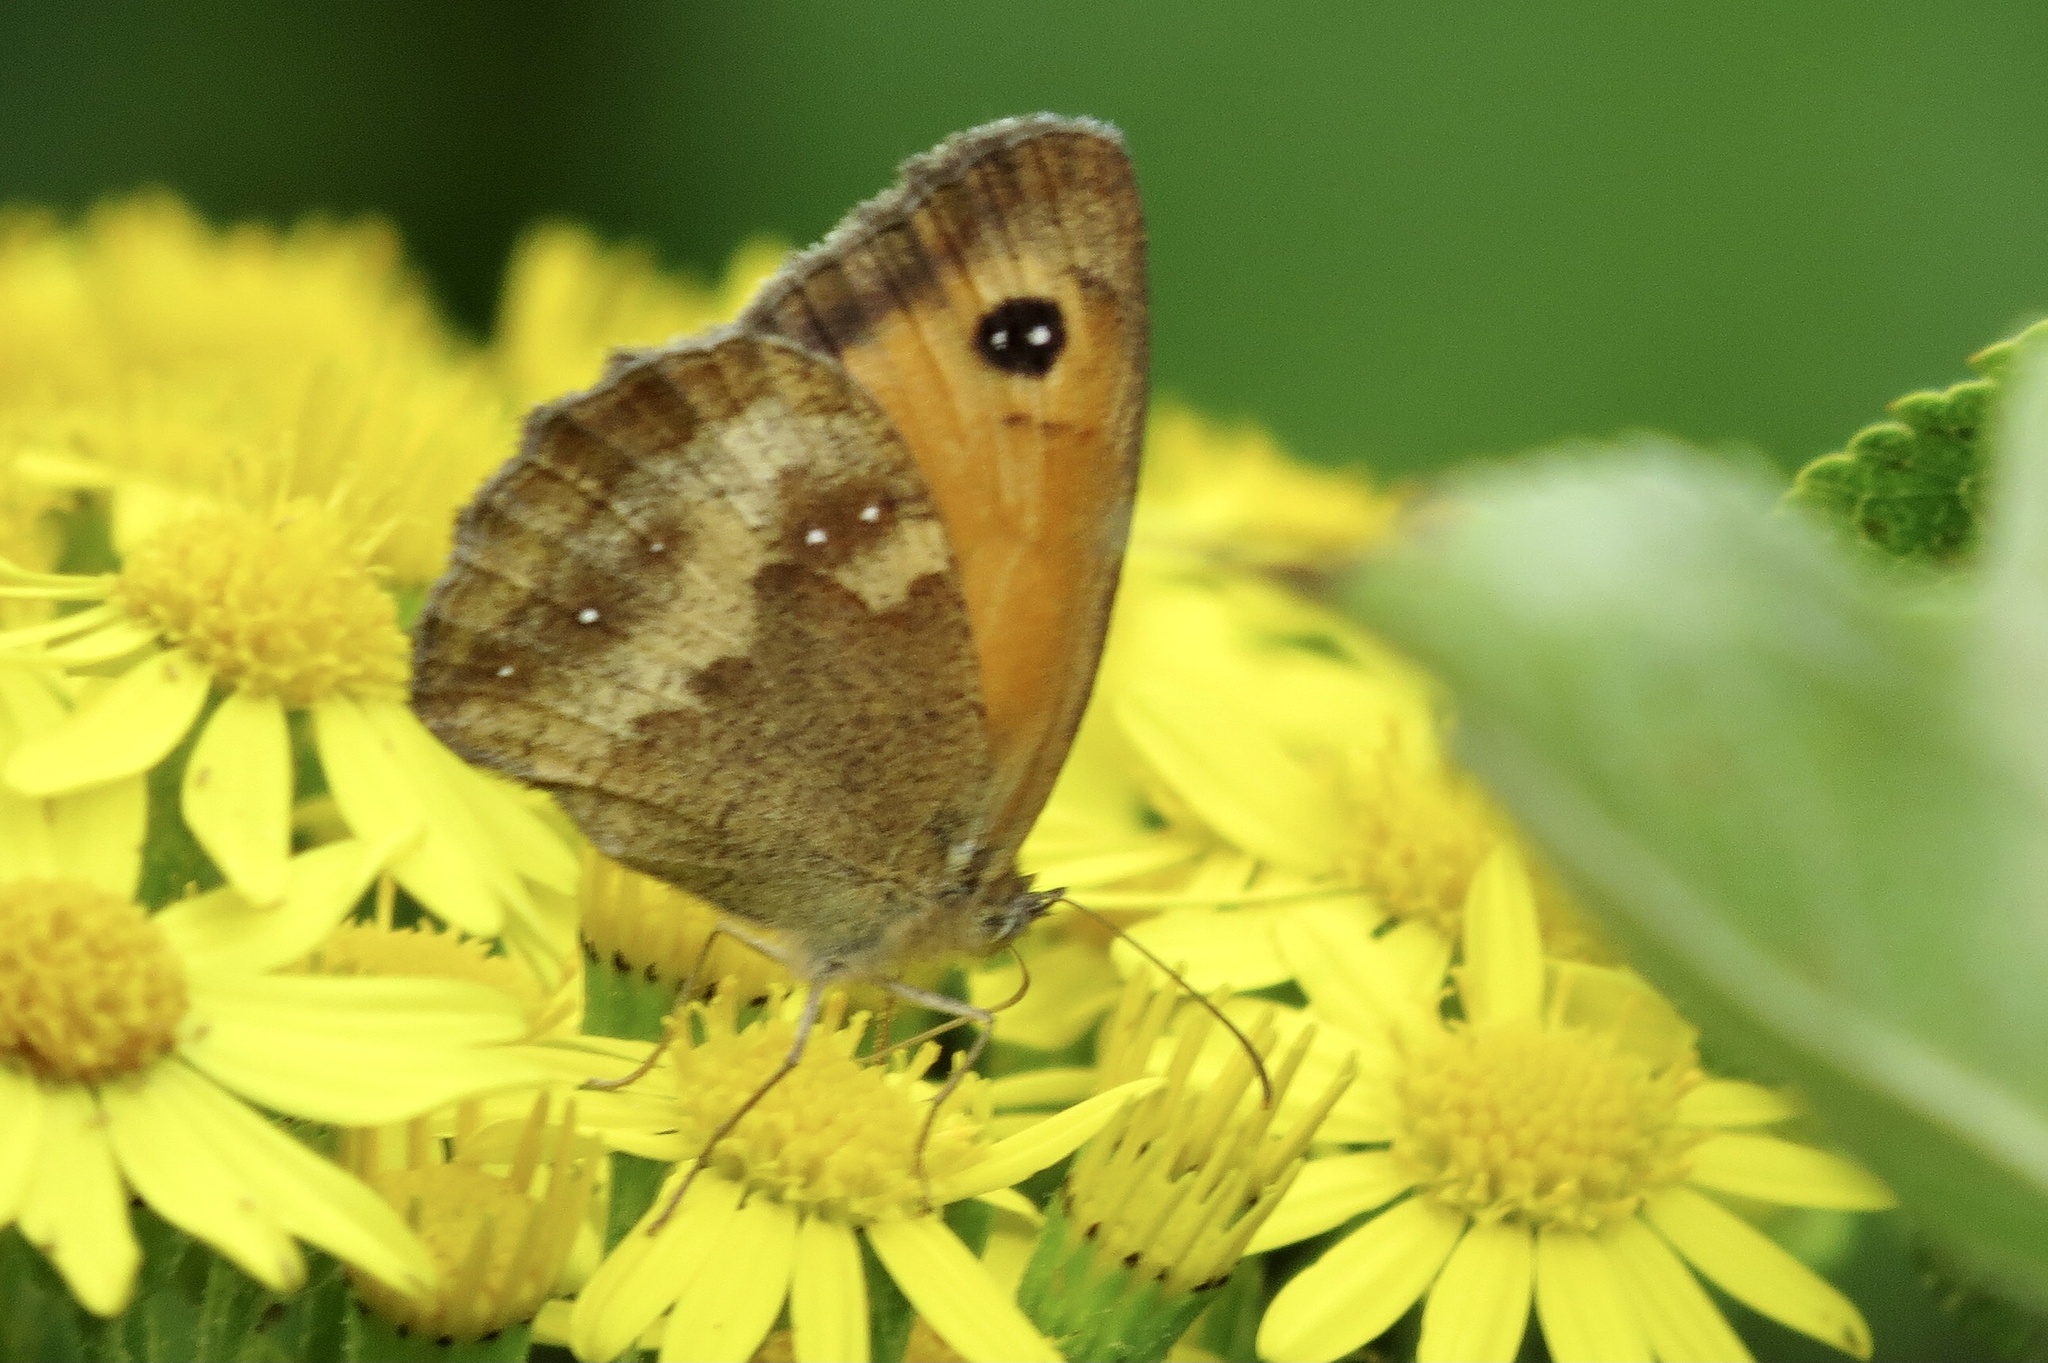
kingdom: Animalia
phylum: Arthropoda
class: Insecta
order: Lepidoptera
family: Nymphalidae
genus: Pyronia
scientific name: Pyronia tithonus
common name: Gatekeeper
